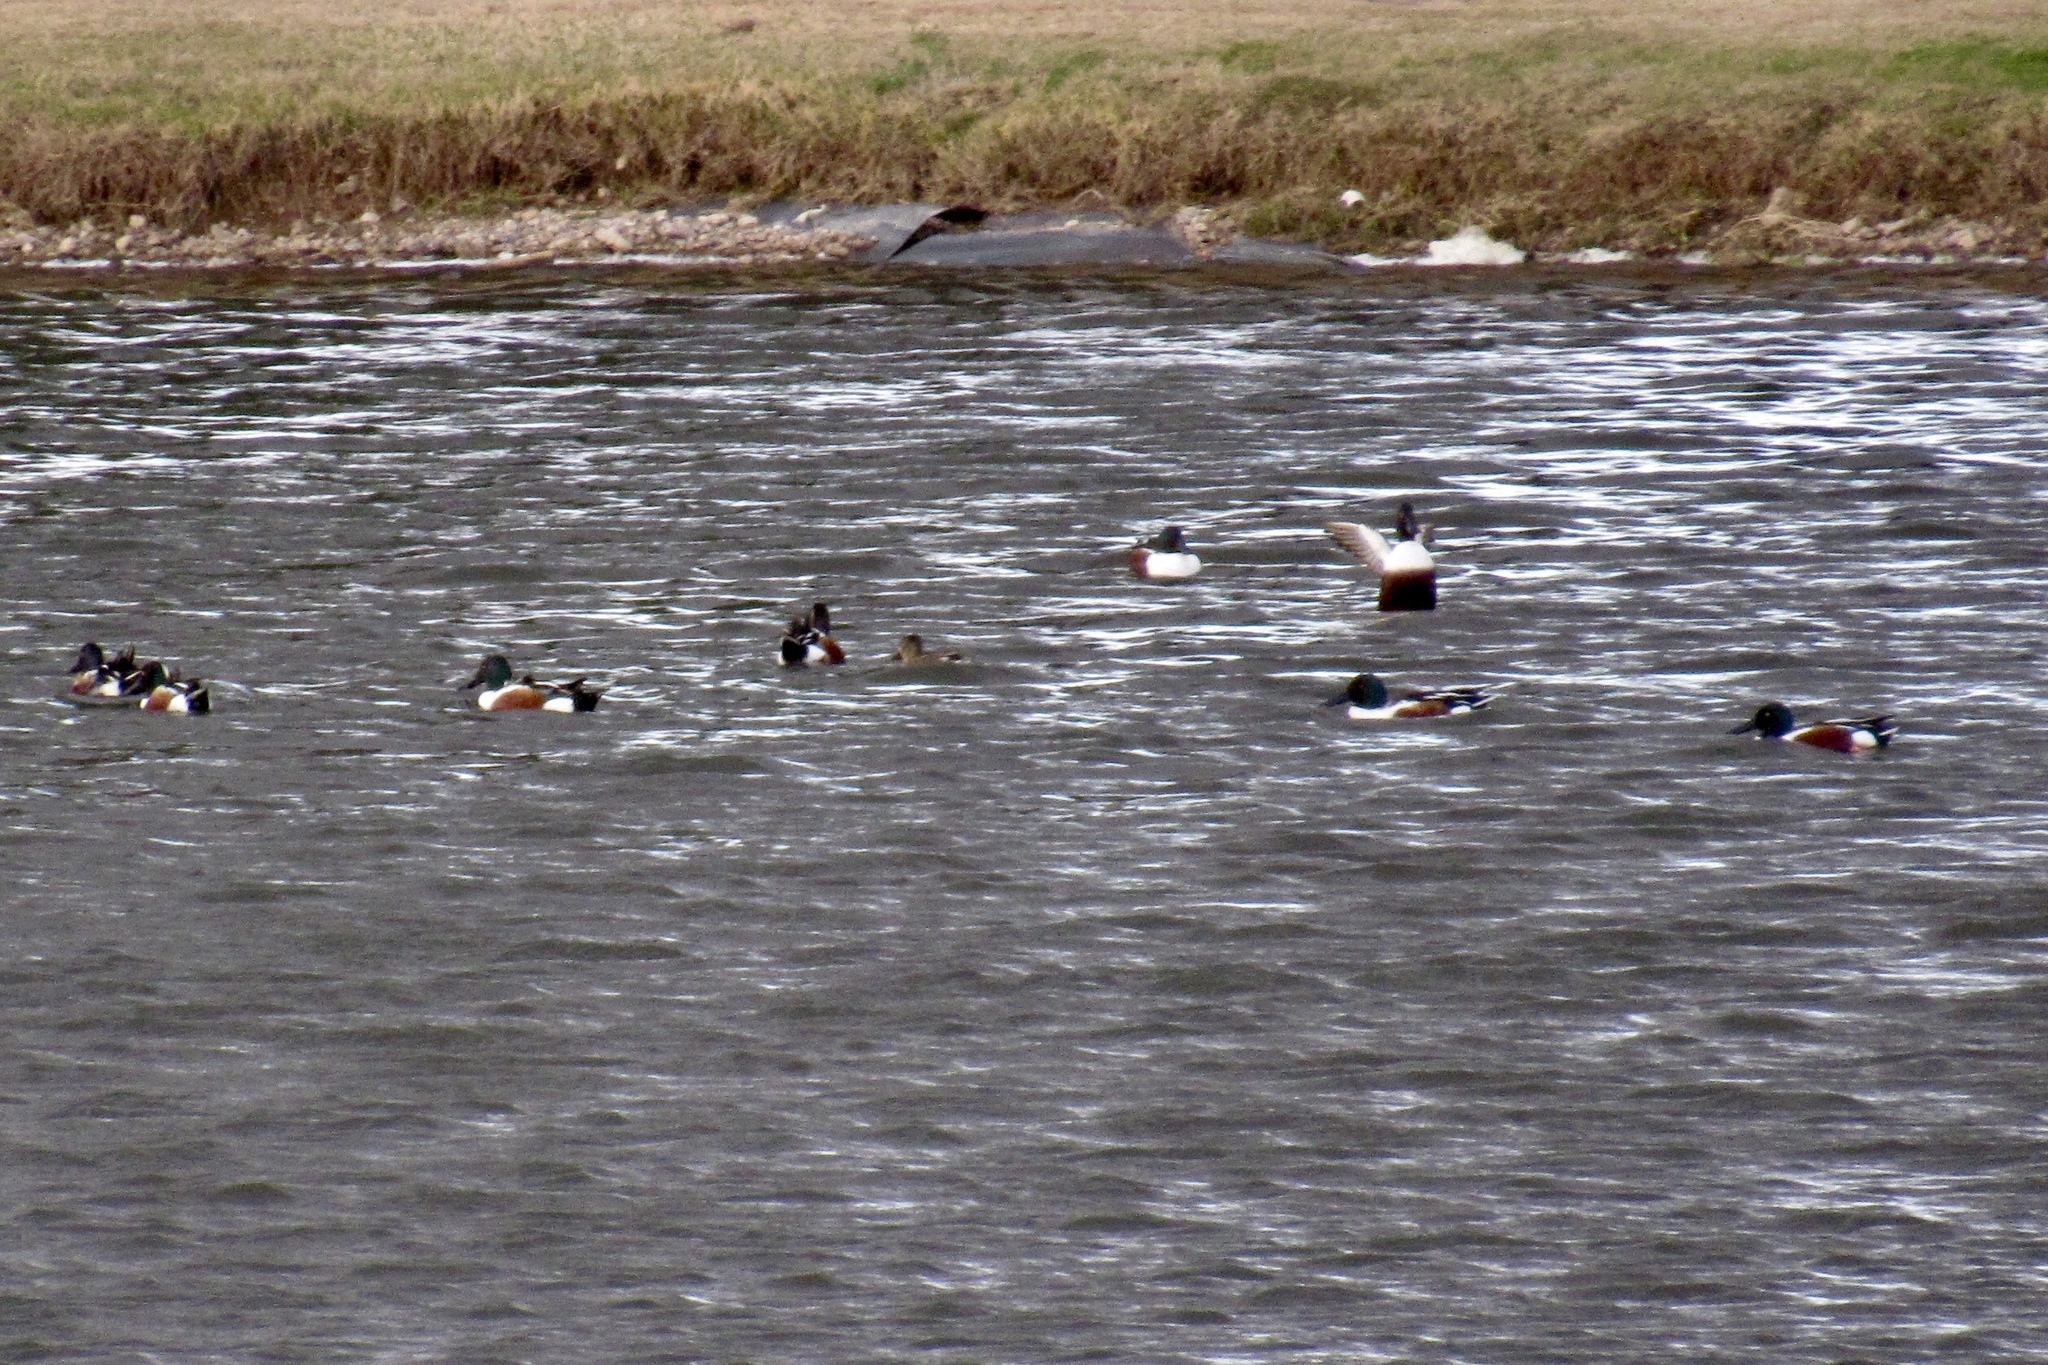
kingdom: Animalia
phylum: Chordata
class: Aves
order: Anseriformes
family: Anatidae
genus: Spatula
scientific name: Spatula clypeata
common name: Northern shoveler
